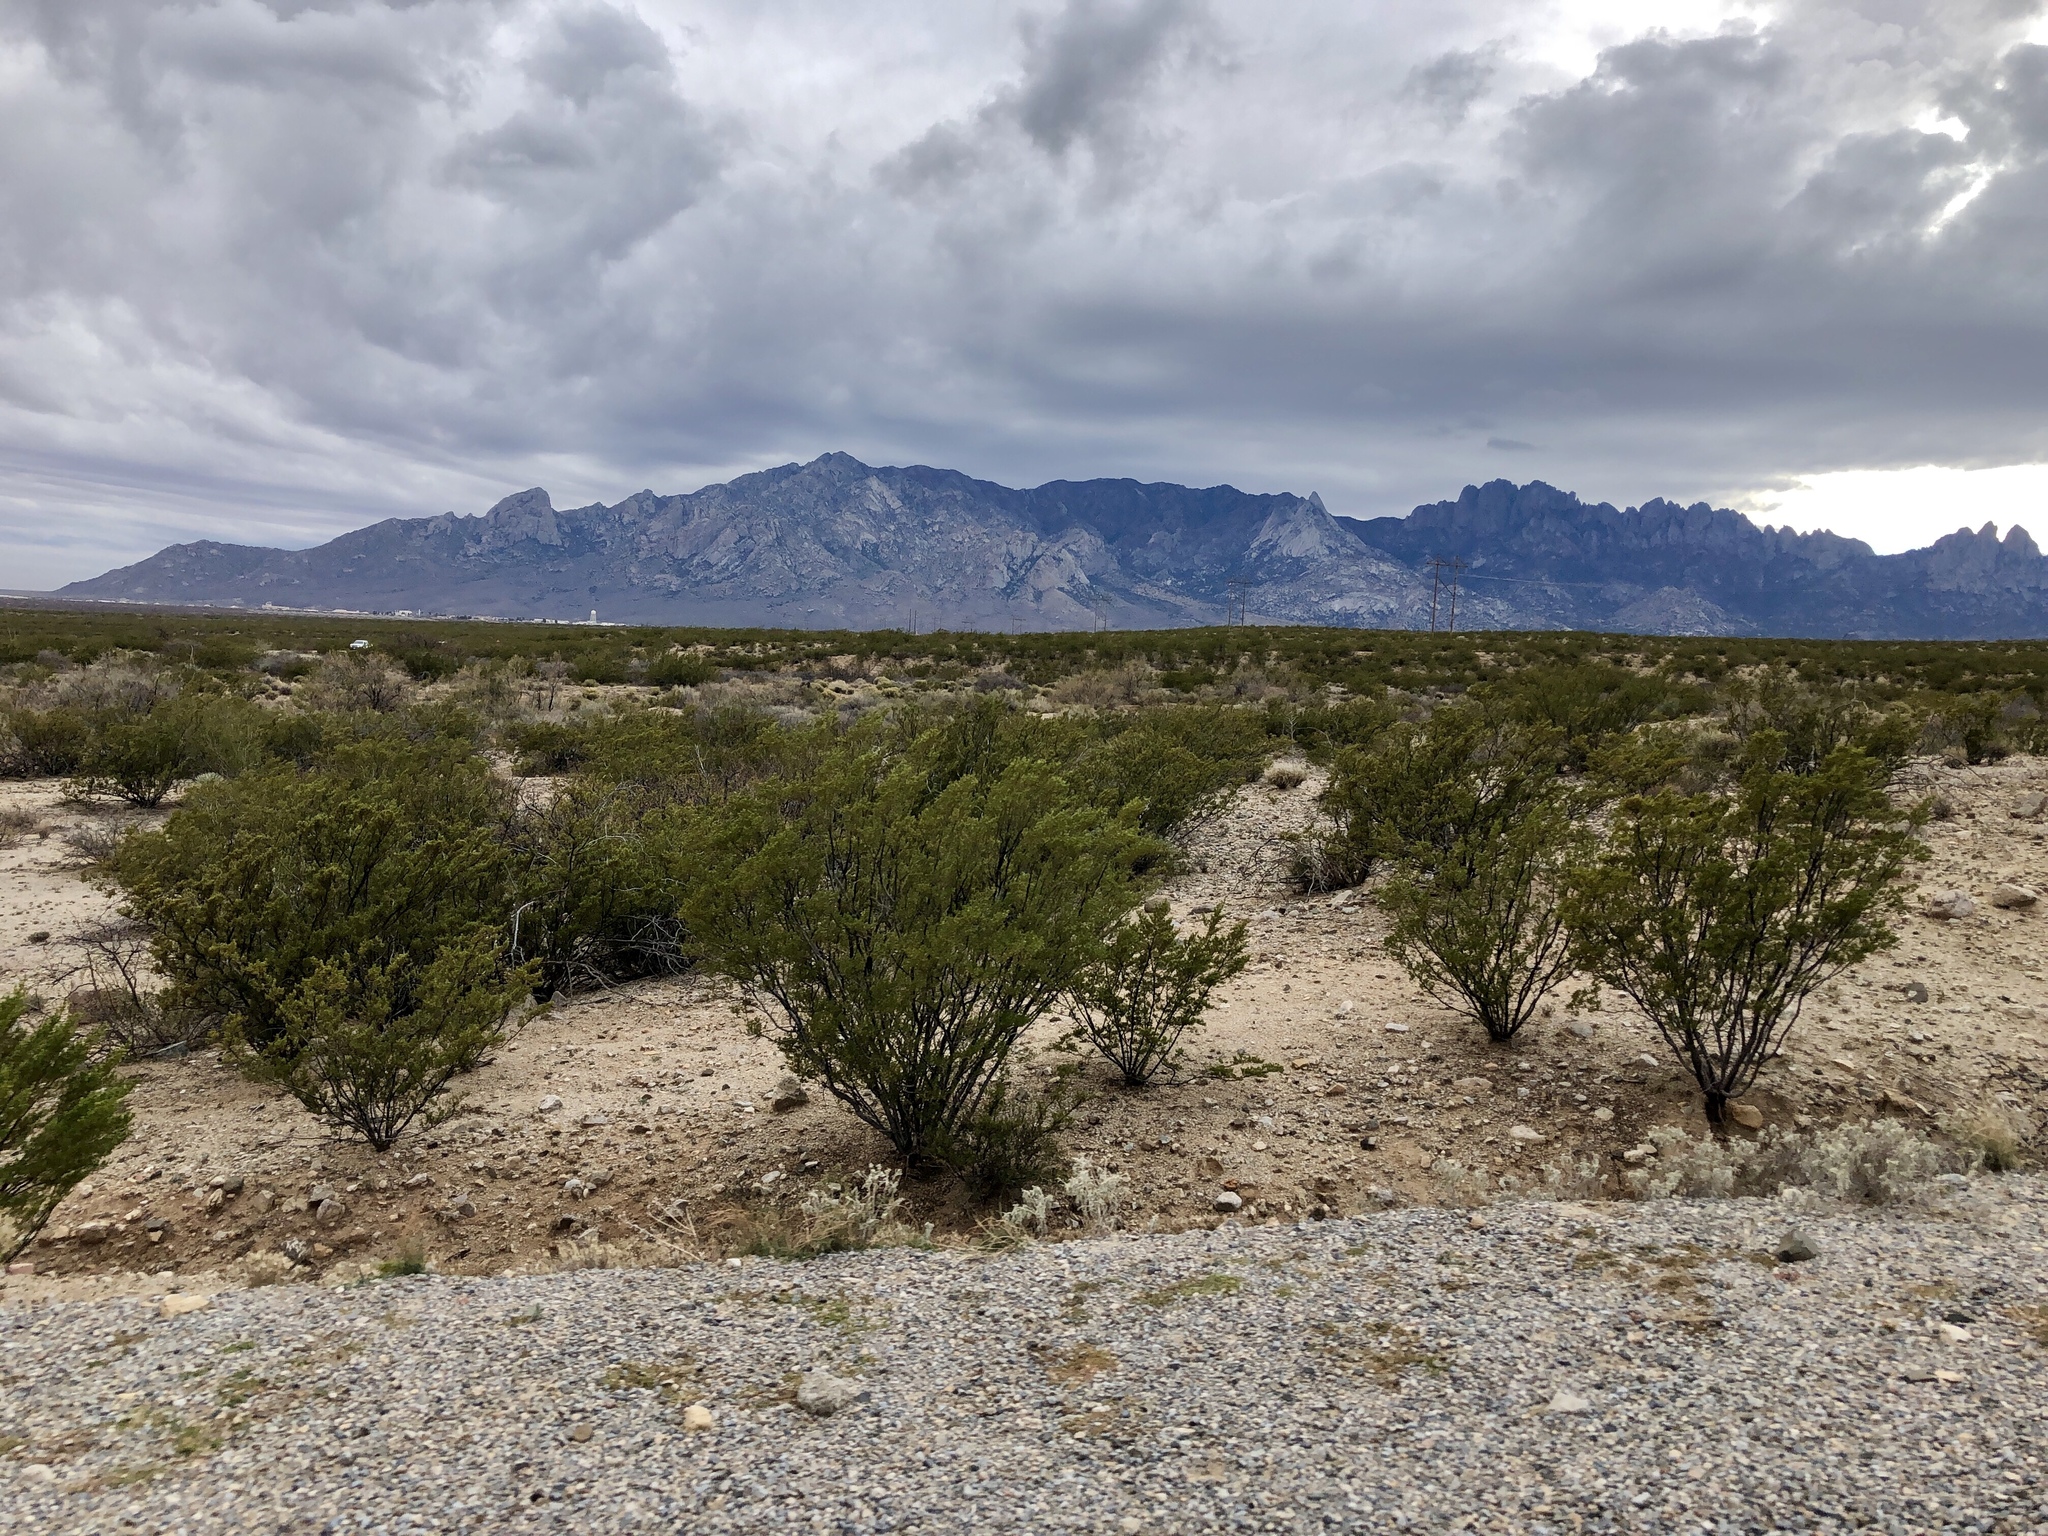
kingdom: Plantae
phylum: Tracheophyta
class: Magnoliopsida
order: Zygophyllales
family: Zygophyllaceae
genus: Larrea
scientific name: Larrea tridentata
